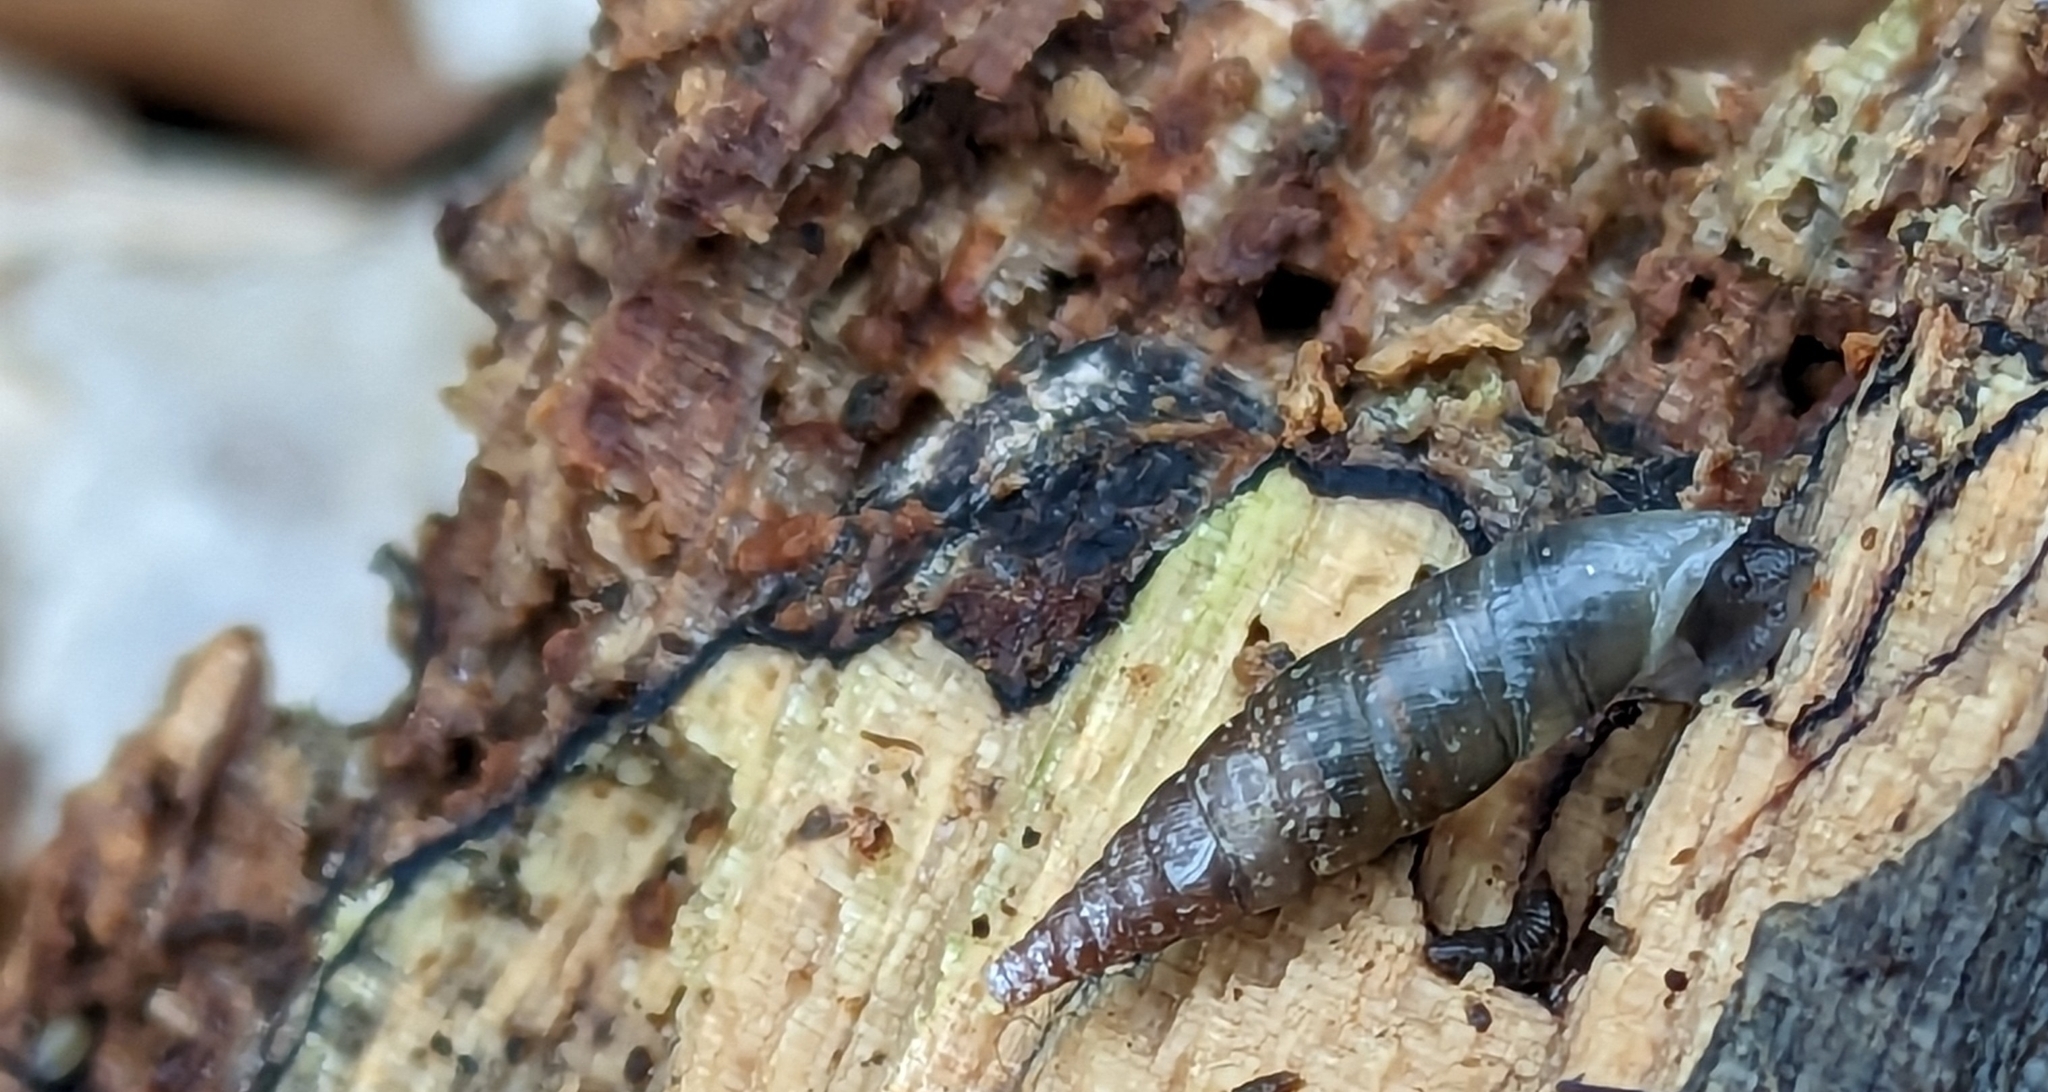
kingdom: Animalia
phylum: Mollusca
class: Gastropoda
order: Stylommatophora
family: Clausiliidae
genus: Cochlodina
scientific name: Cochlodina laminata
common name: Plaited door snail
